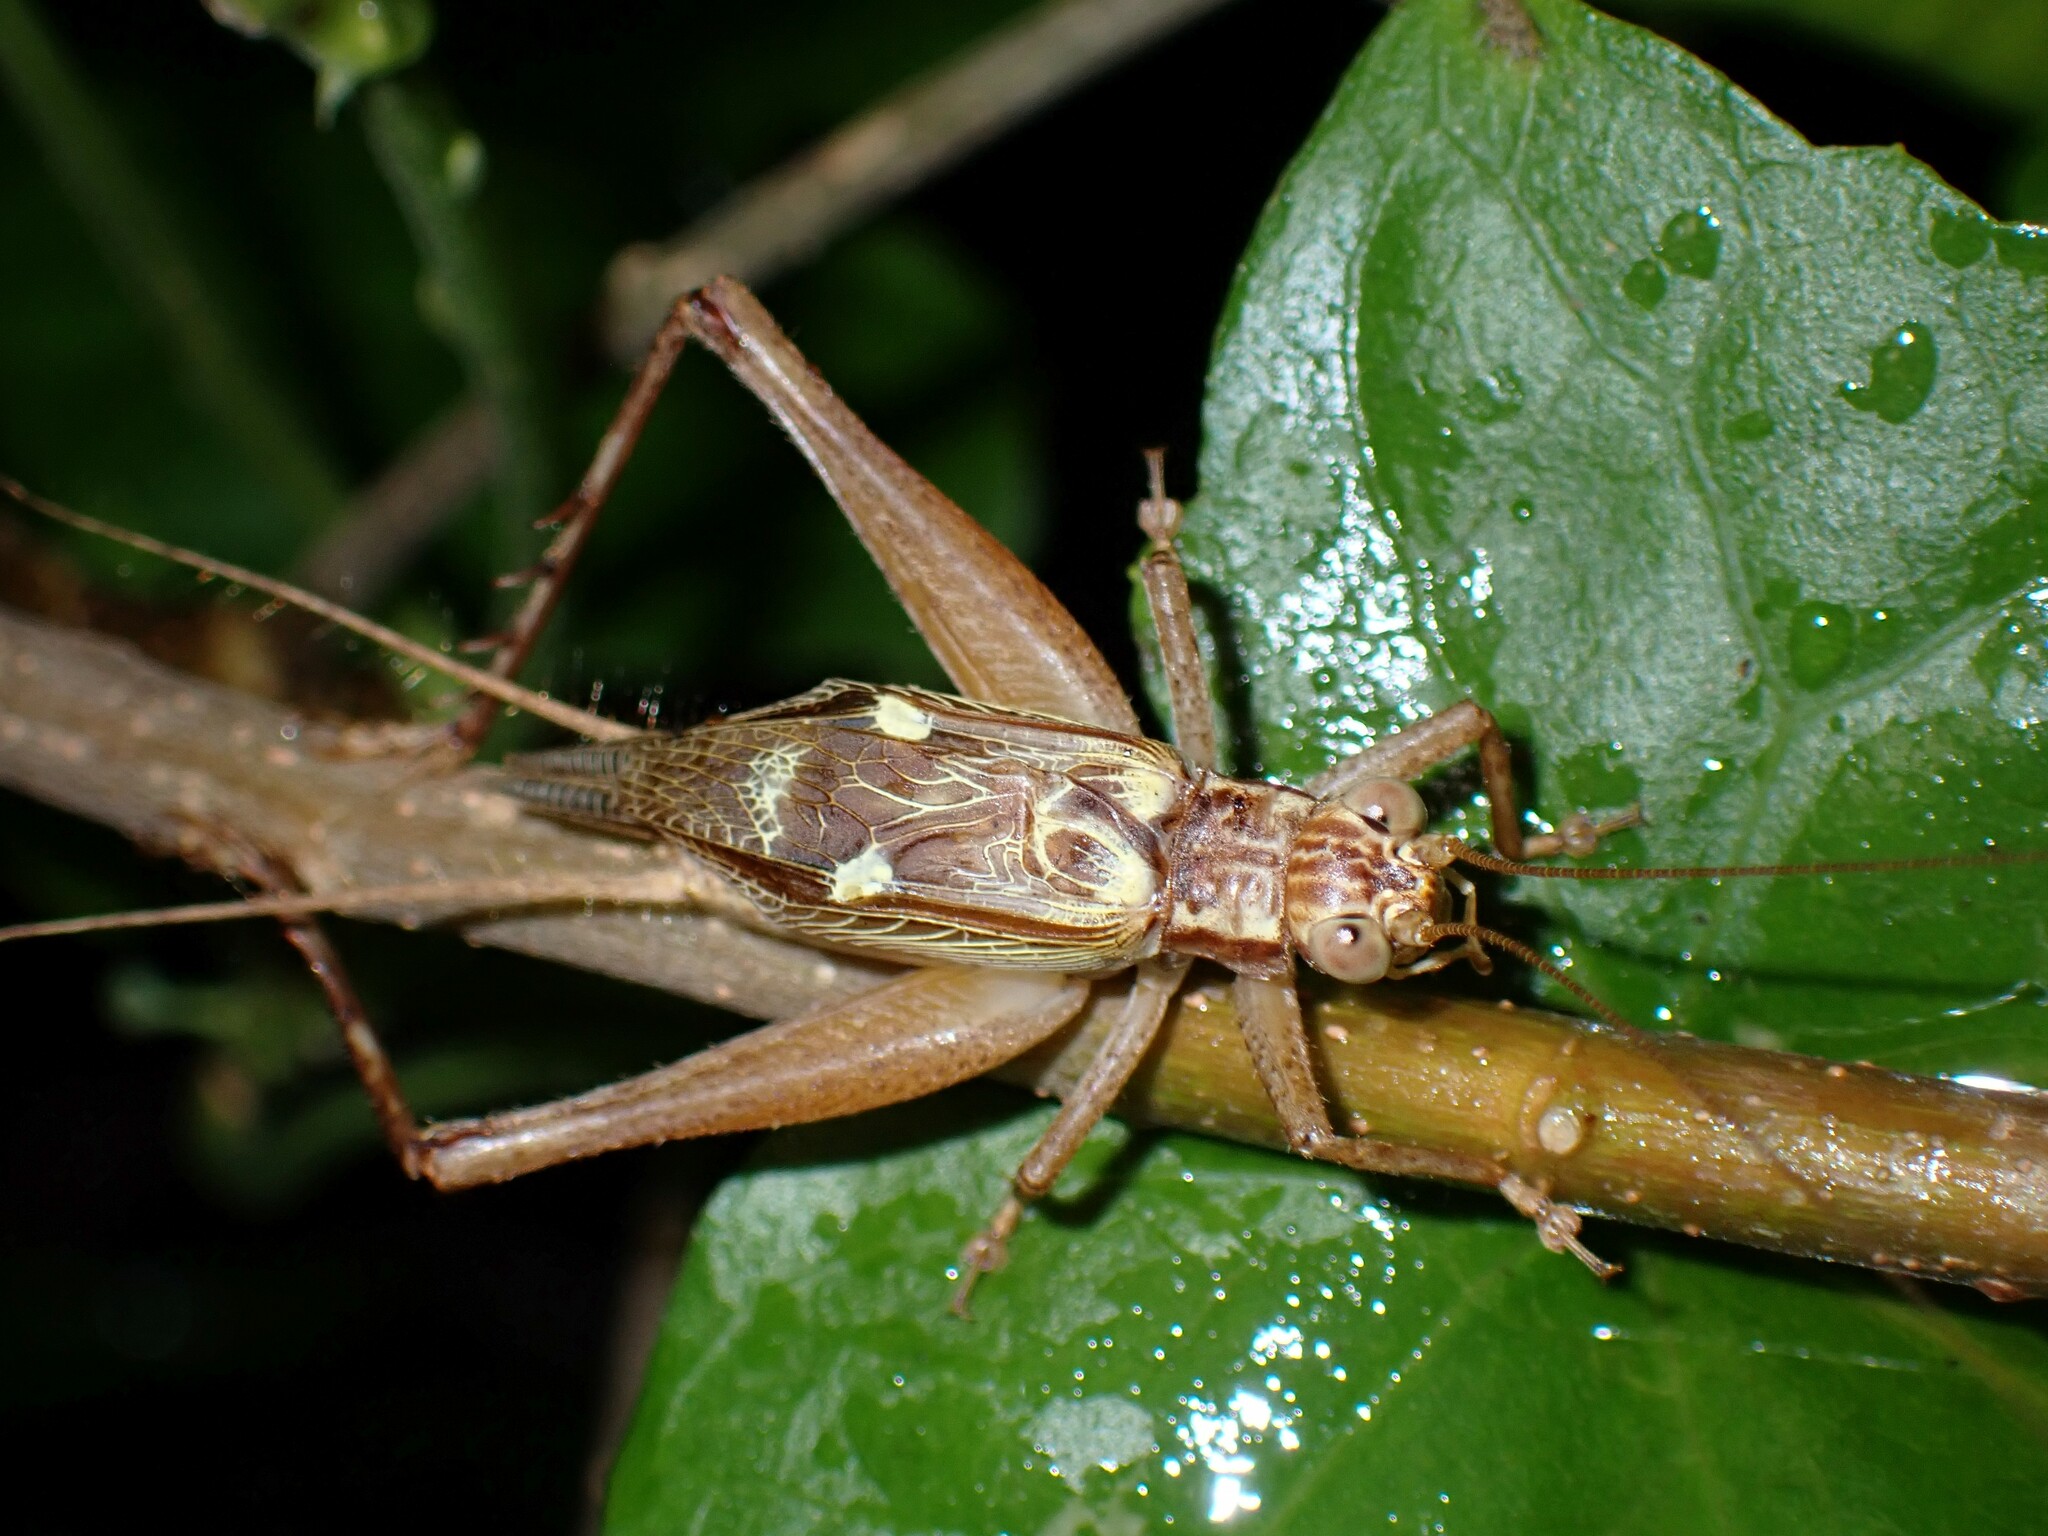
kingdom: Animalia
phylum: Arthropoda
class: Insecta
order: Orthoptera
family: Gryllidae
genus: Cardiodactylus
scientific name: Cardiodactylus novaeguineae
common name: Sad cricket
